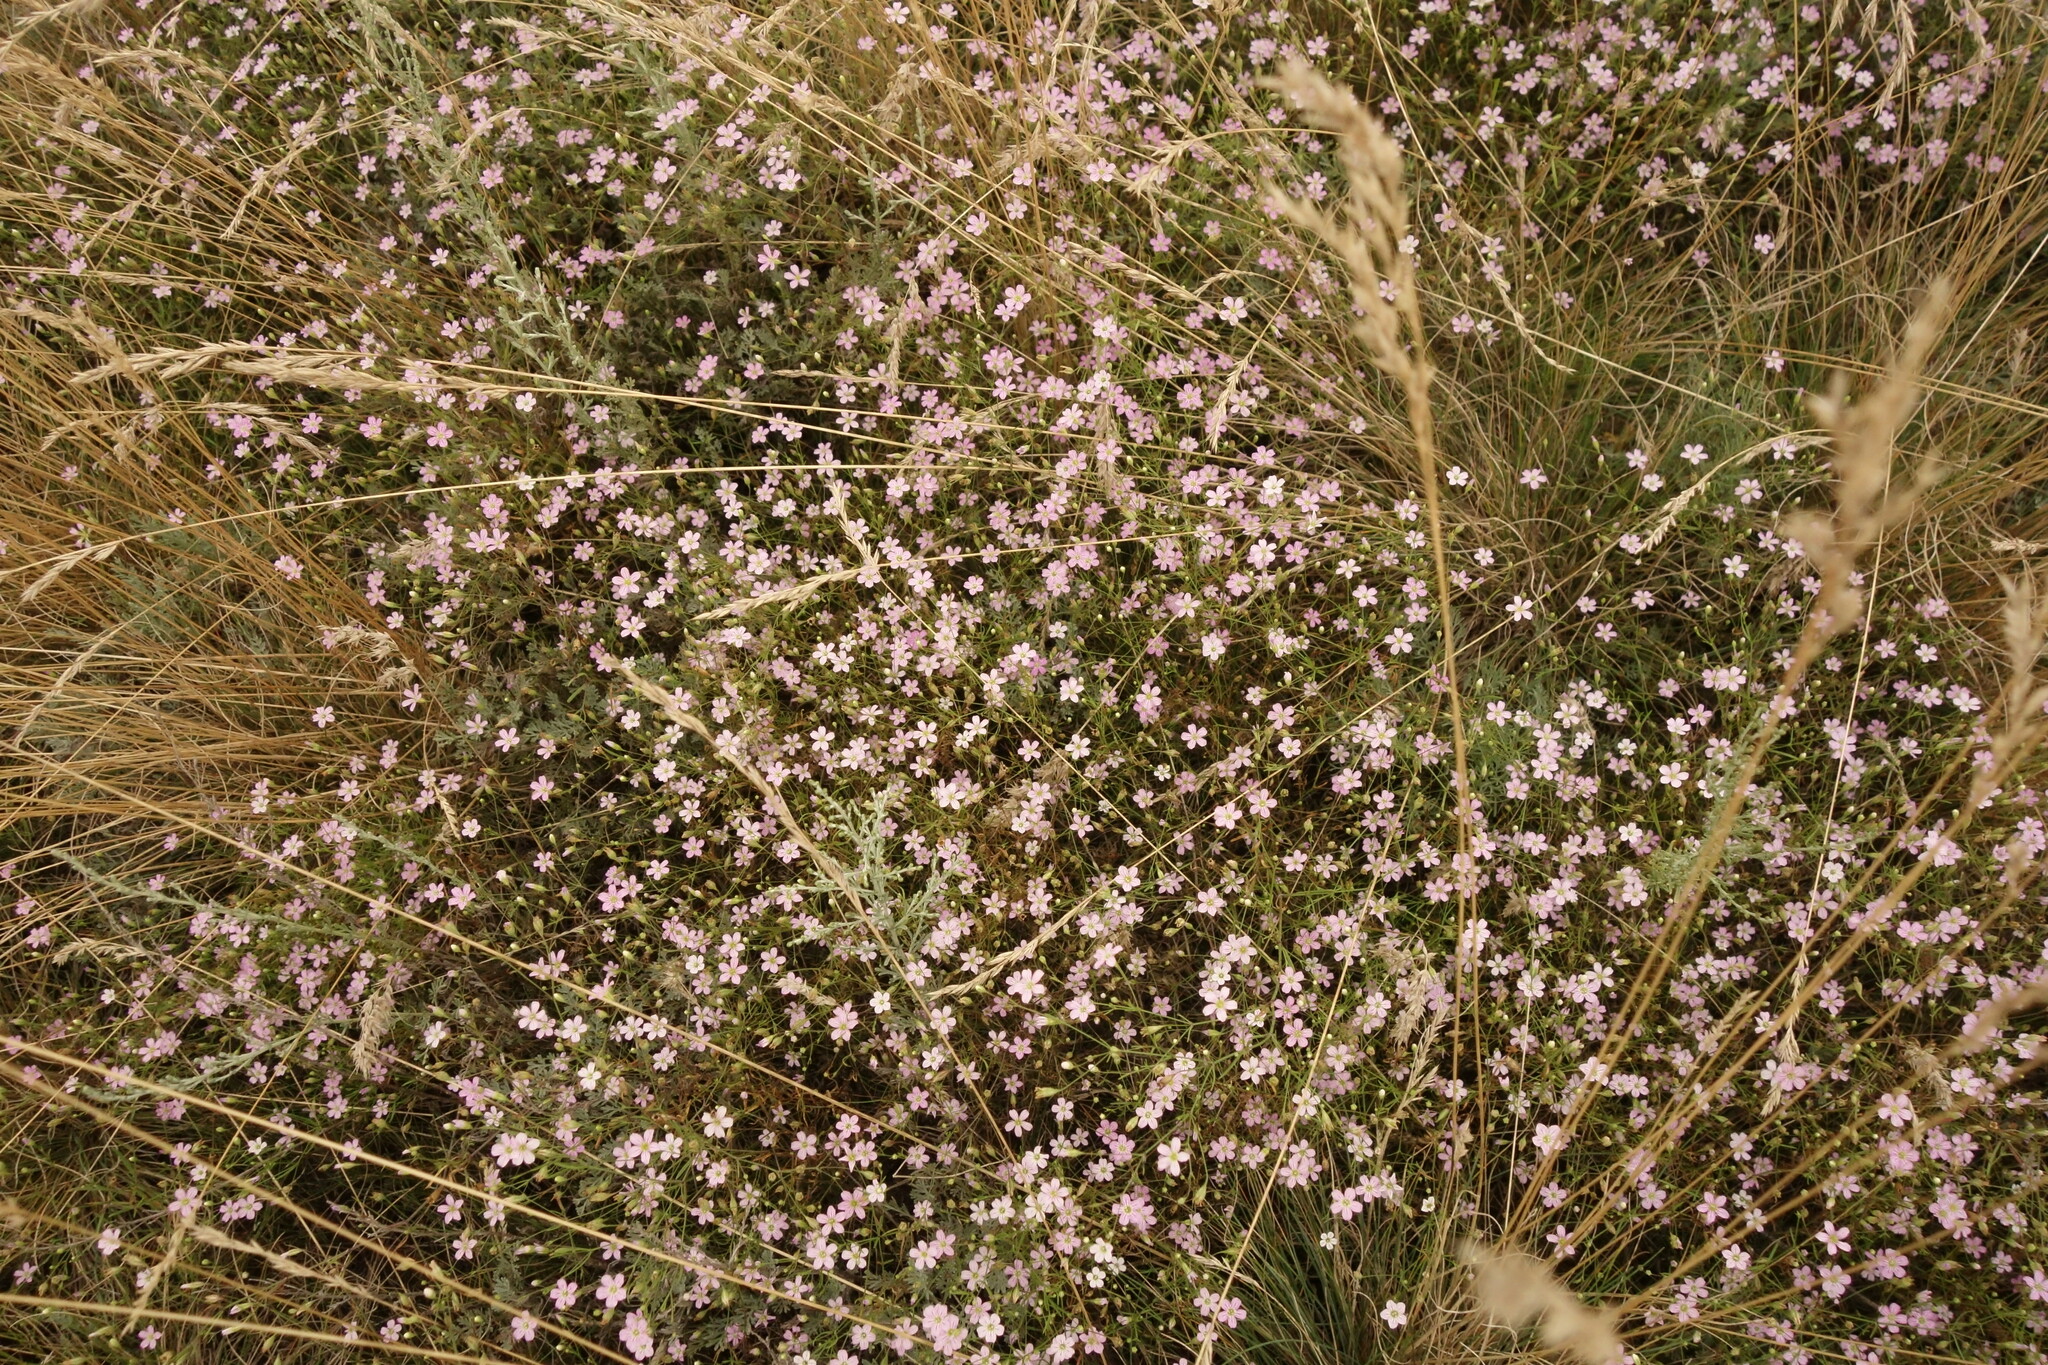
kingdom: Plantae
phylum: Tracheophyta
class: Magnoliopsida
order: Caryophyllales
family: Caryophyllaceae
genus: Psammophiliella
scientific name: Psammophiliella muralis
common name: Cushion baby's-breath
